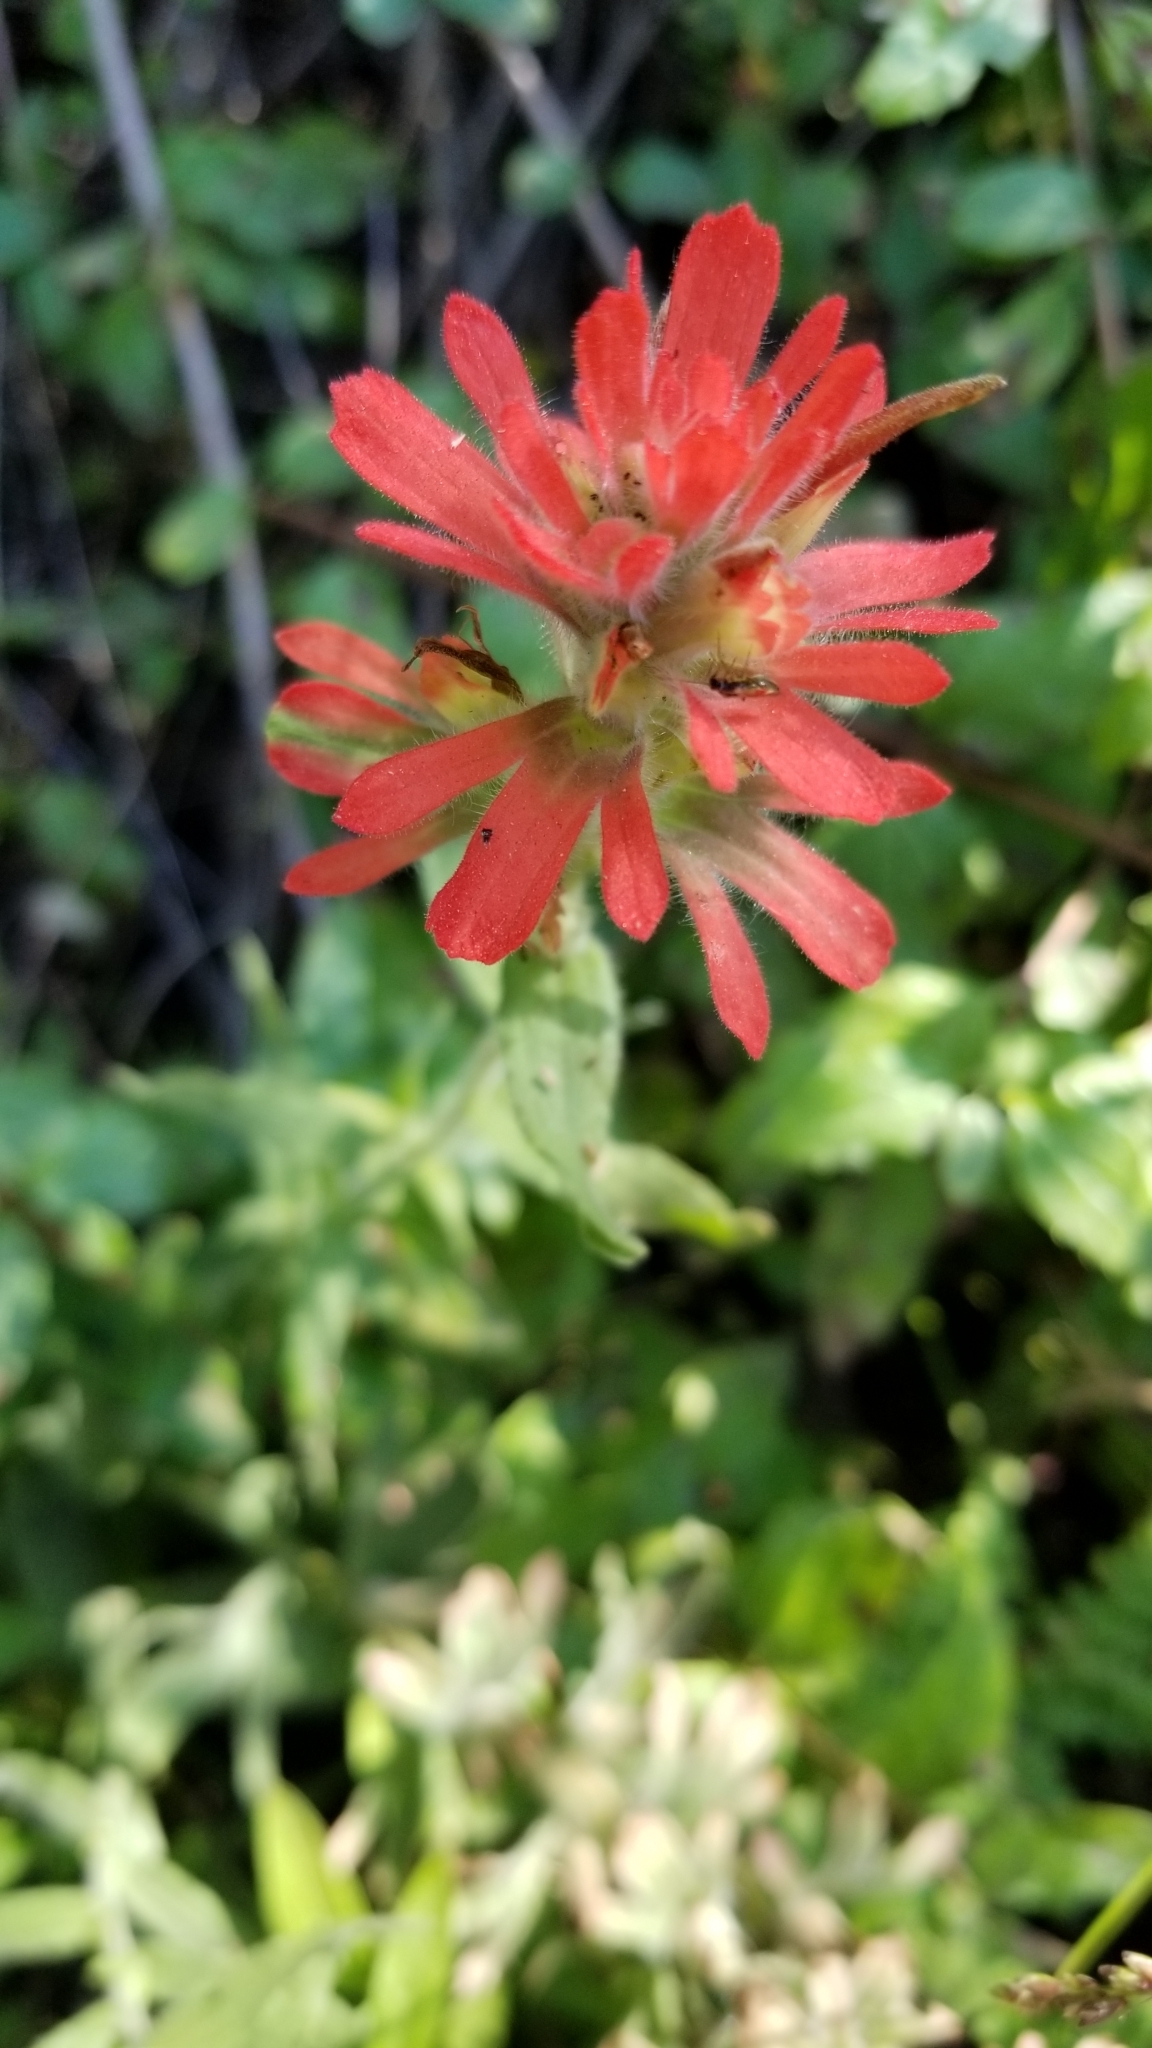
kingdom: Plantae
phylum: Tracheophyta
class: Magnoliopsida
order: Lamiales
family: Orobanchaceae
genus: Castilleja
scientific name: Castilleja martini
